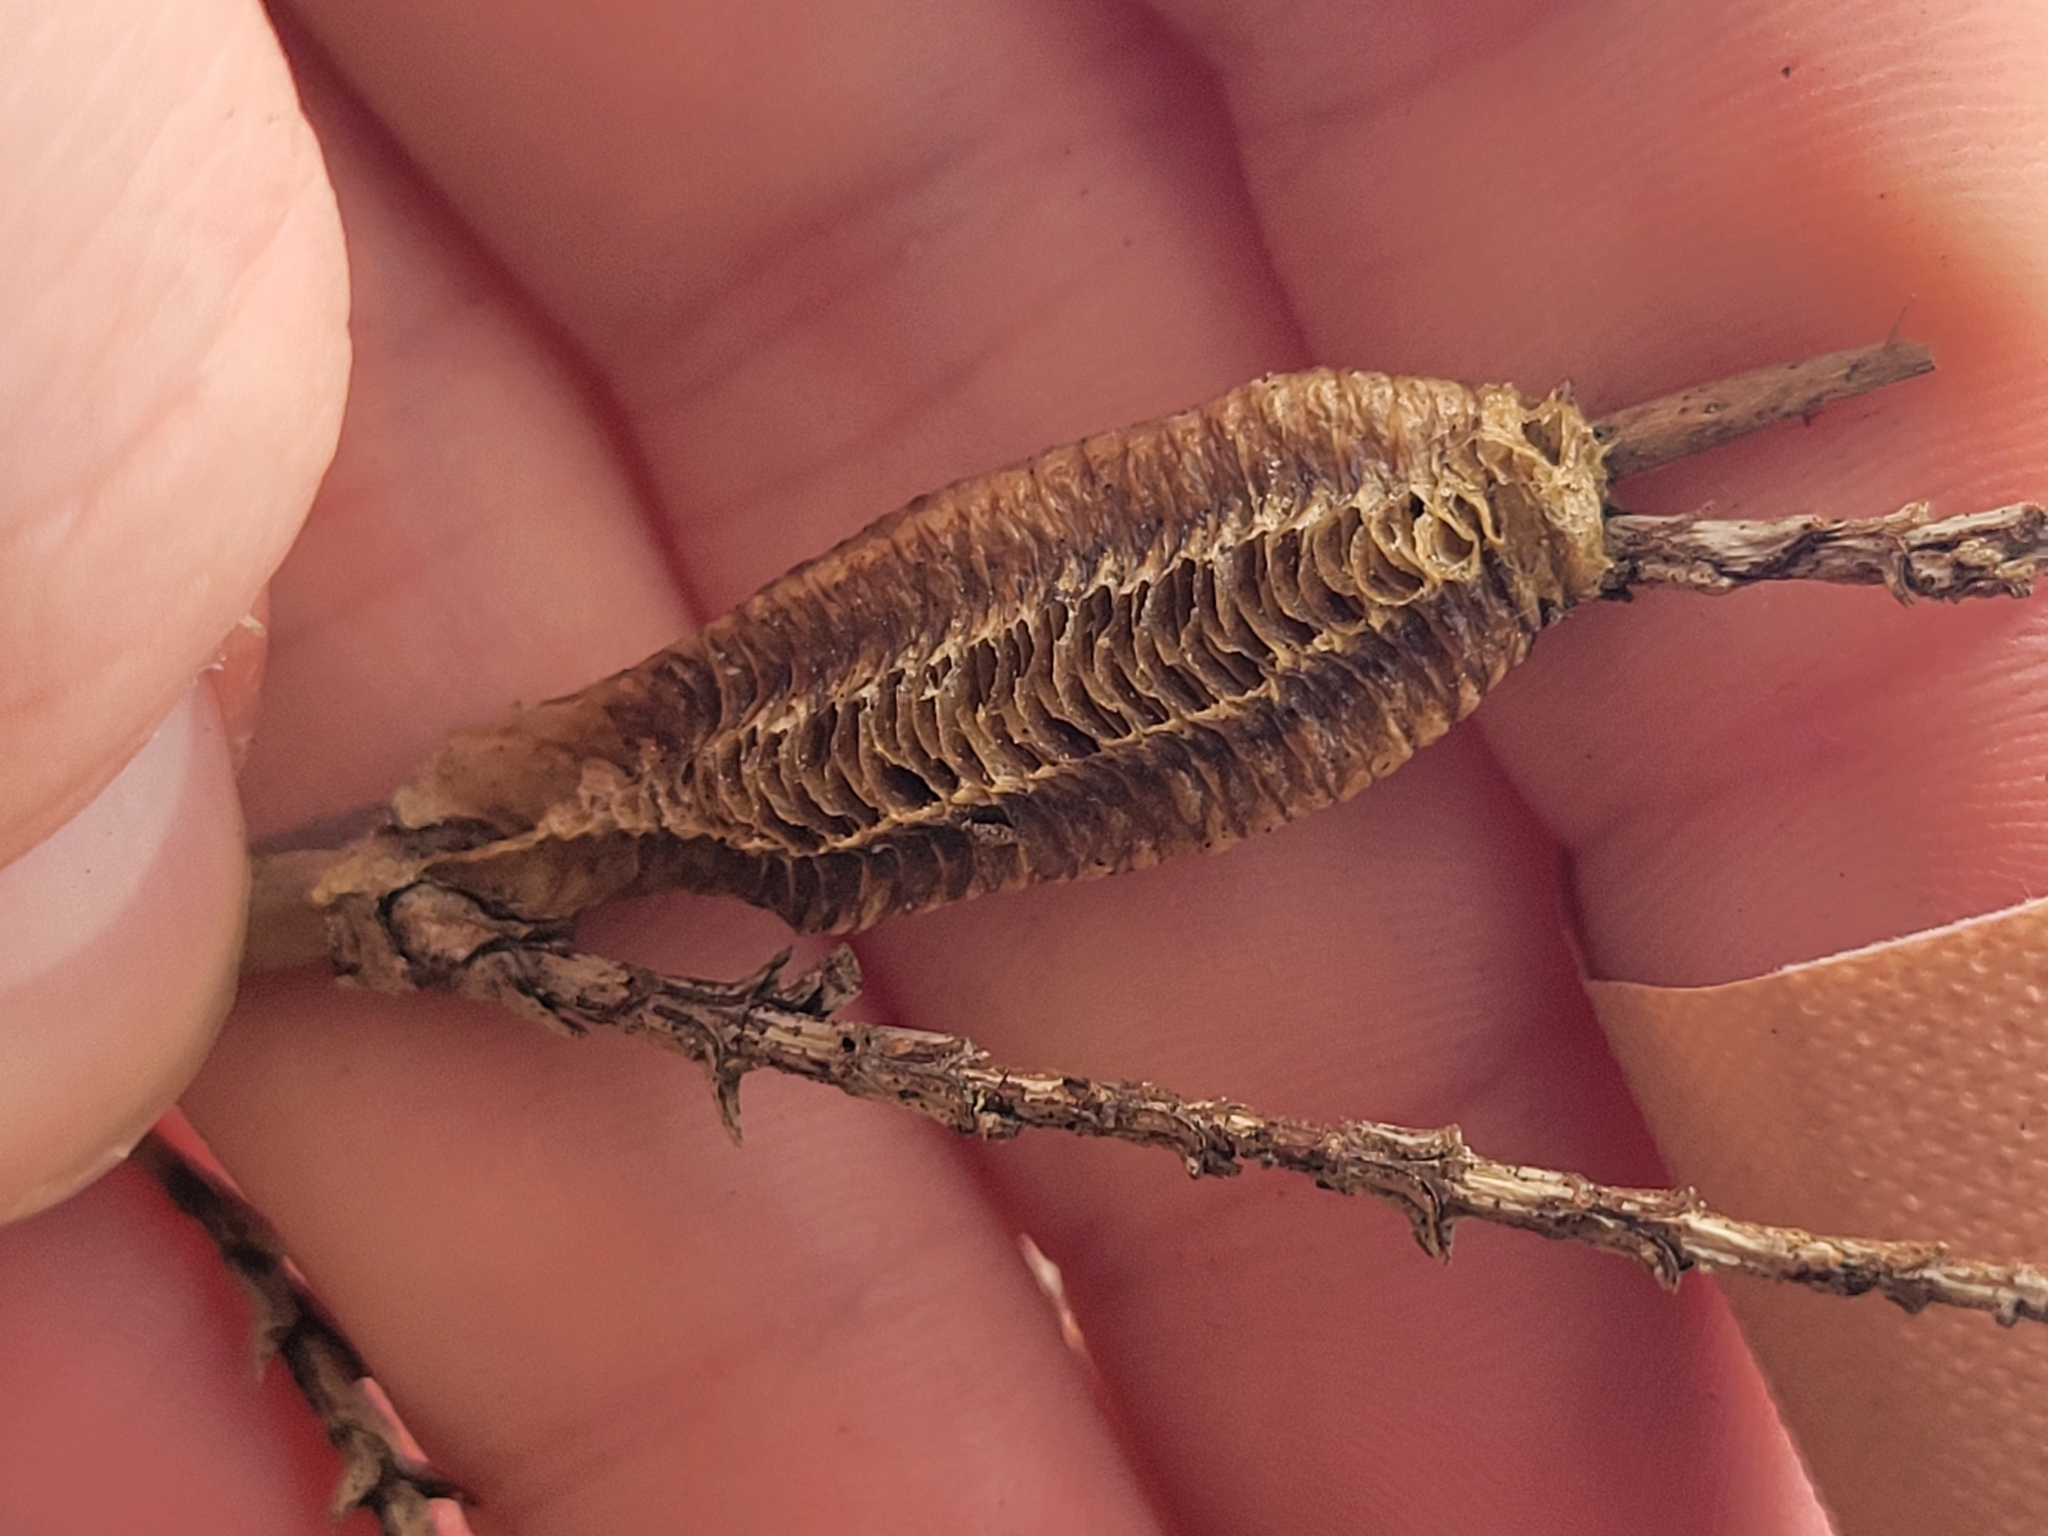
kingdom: Animalia
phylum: Arthropoda
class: Insecta
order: Mantodea
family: Mantidae
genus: Stagmomantis
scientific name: Stagmomantis carolina
